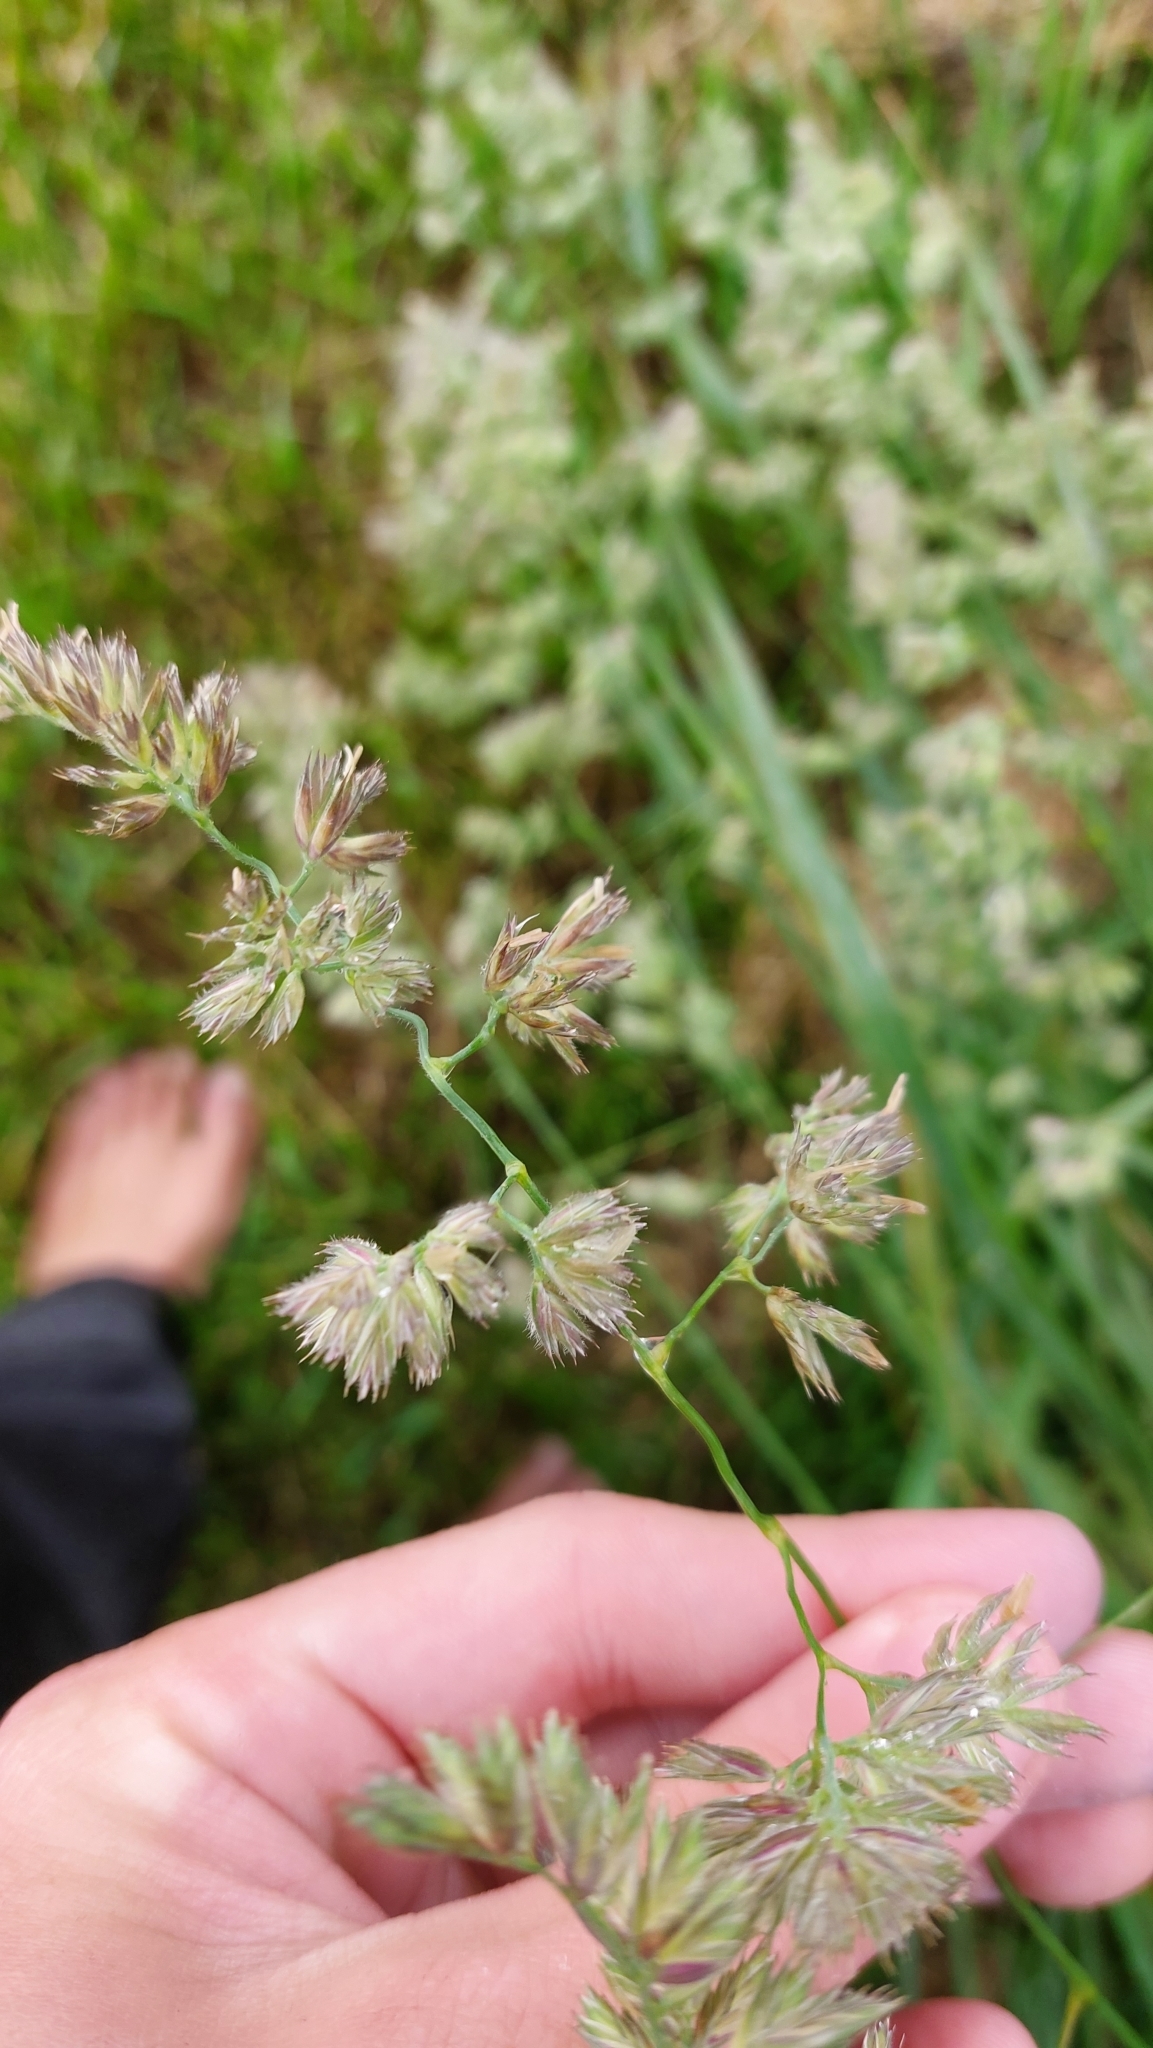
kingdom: Plantae
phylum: Tracheophyta
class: Liliopsida
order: Poales
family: Poaceae
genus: Dactylis
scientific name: Dactylis glomerata
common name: Orchardgrass
